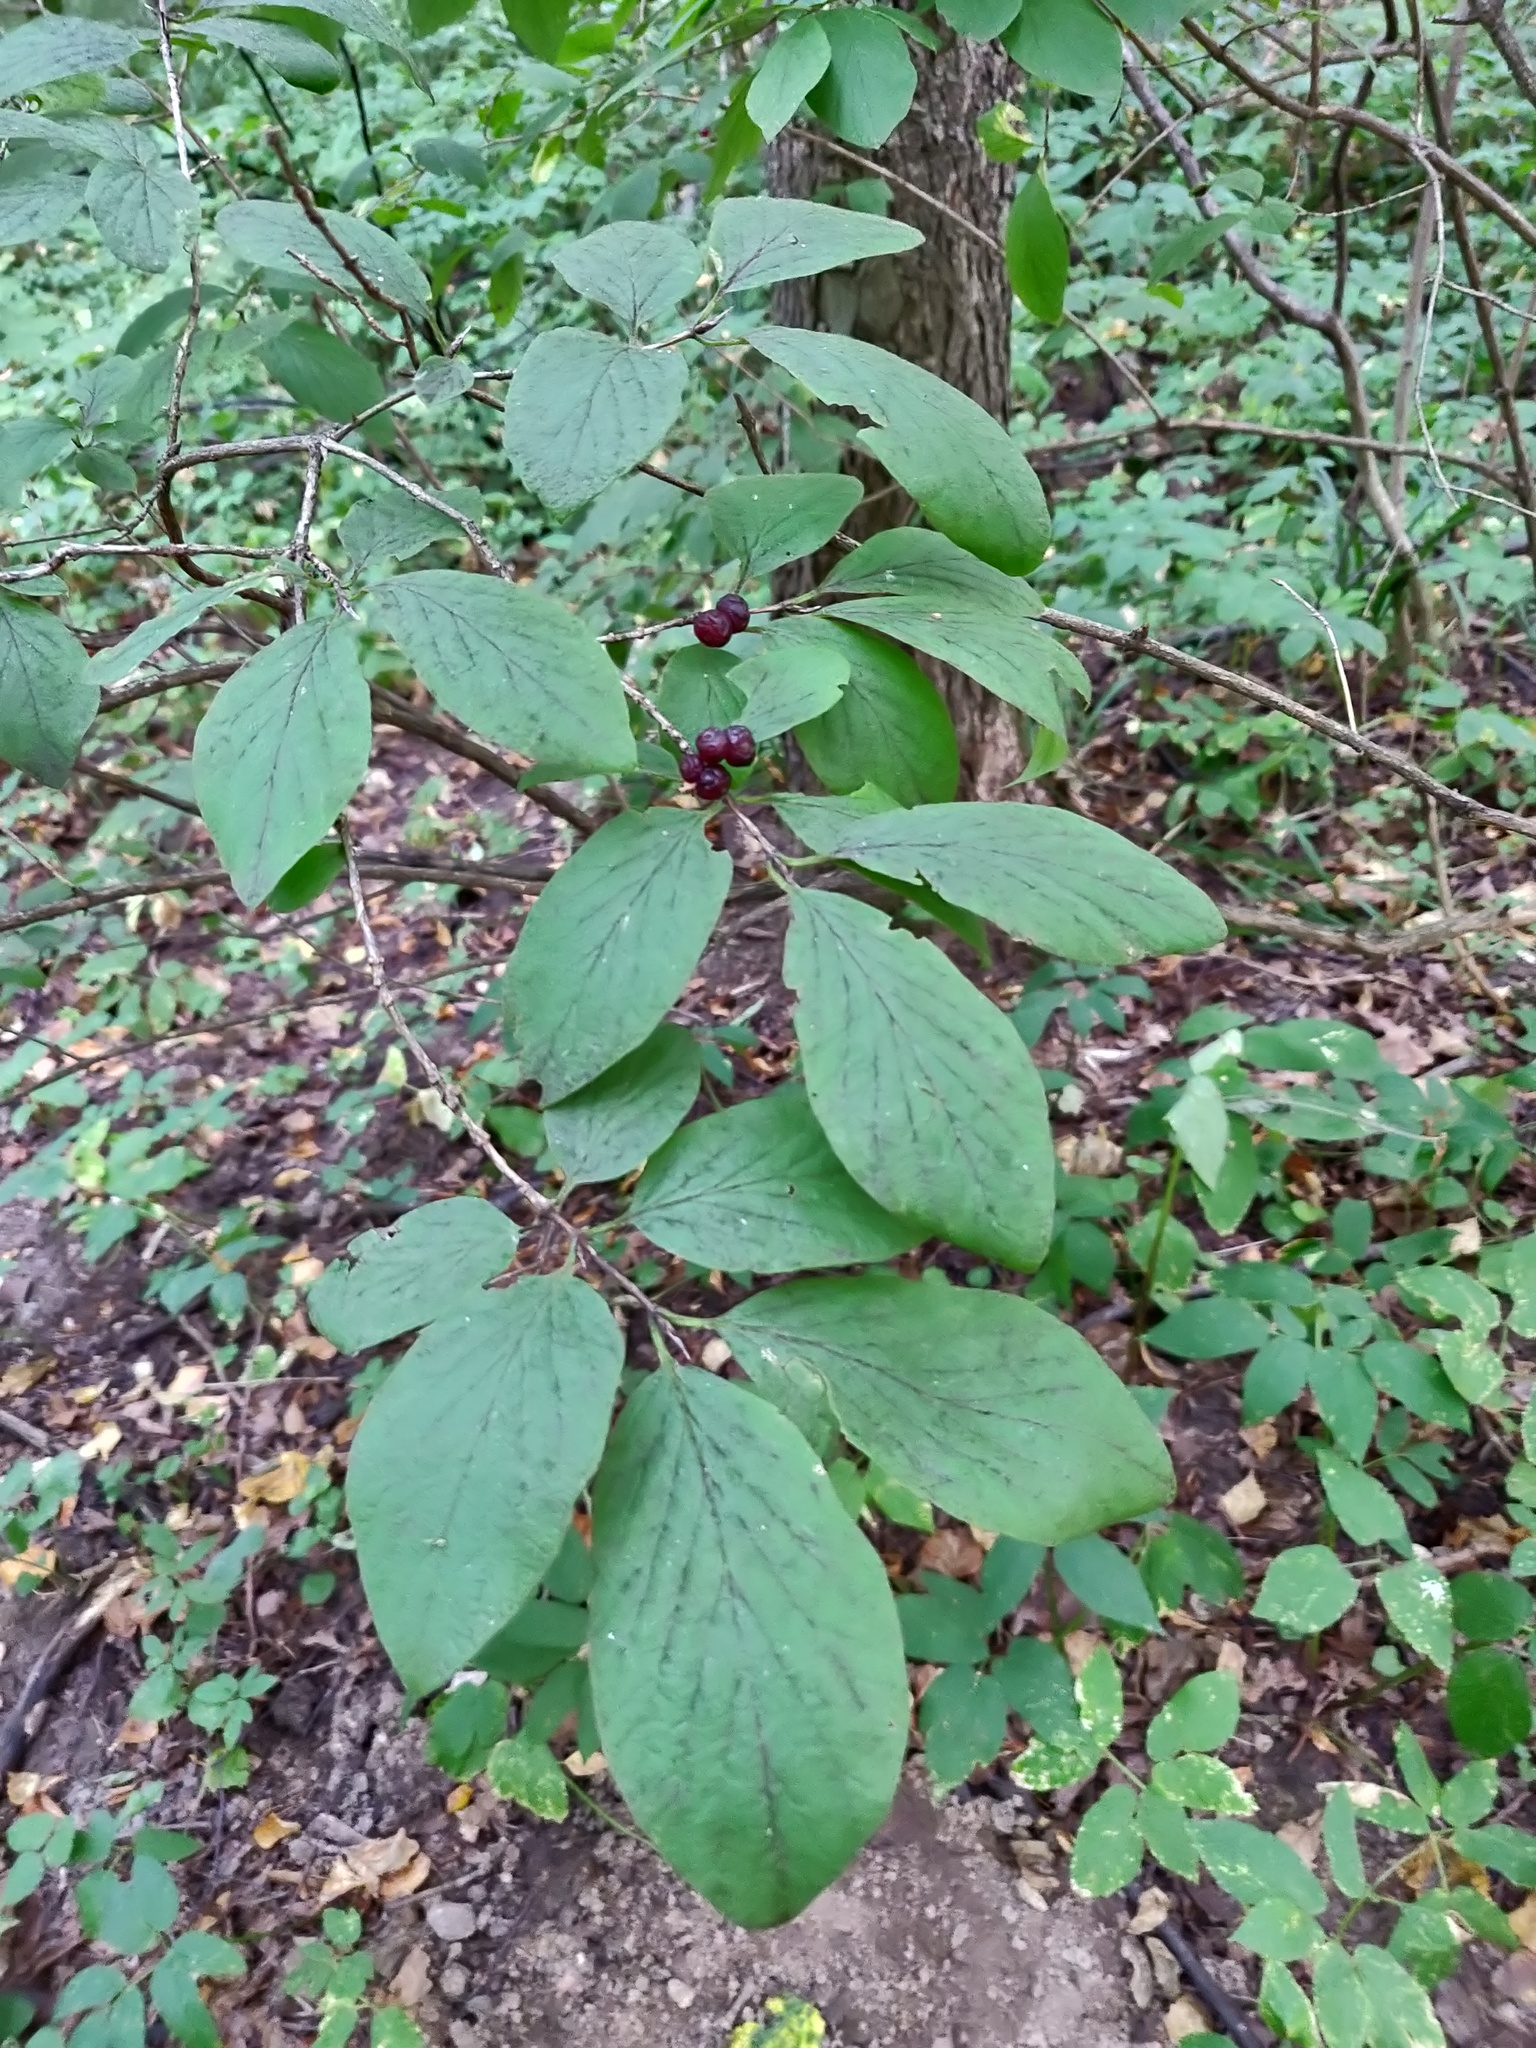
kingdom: Plantae
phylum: Tracheophyta
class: Magnoliopsida
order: Dipsacales
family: Caprifoliaceae
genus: Lonicera
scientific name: Lonicera xylosteum
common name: Fly honeysuckle
